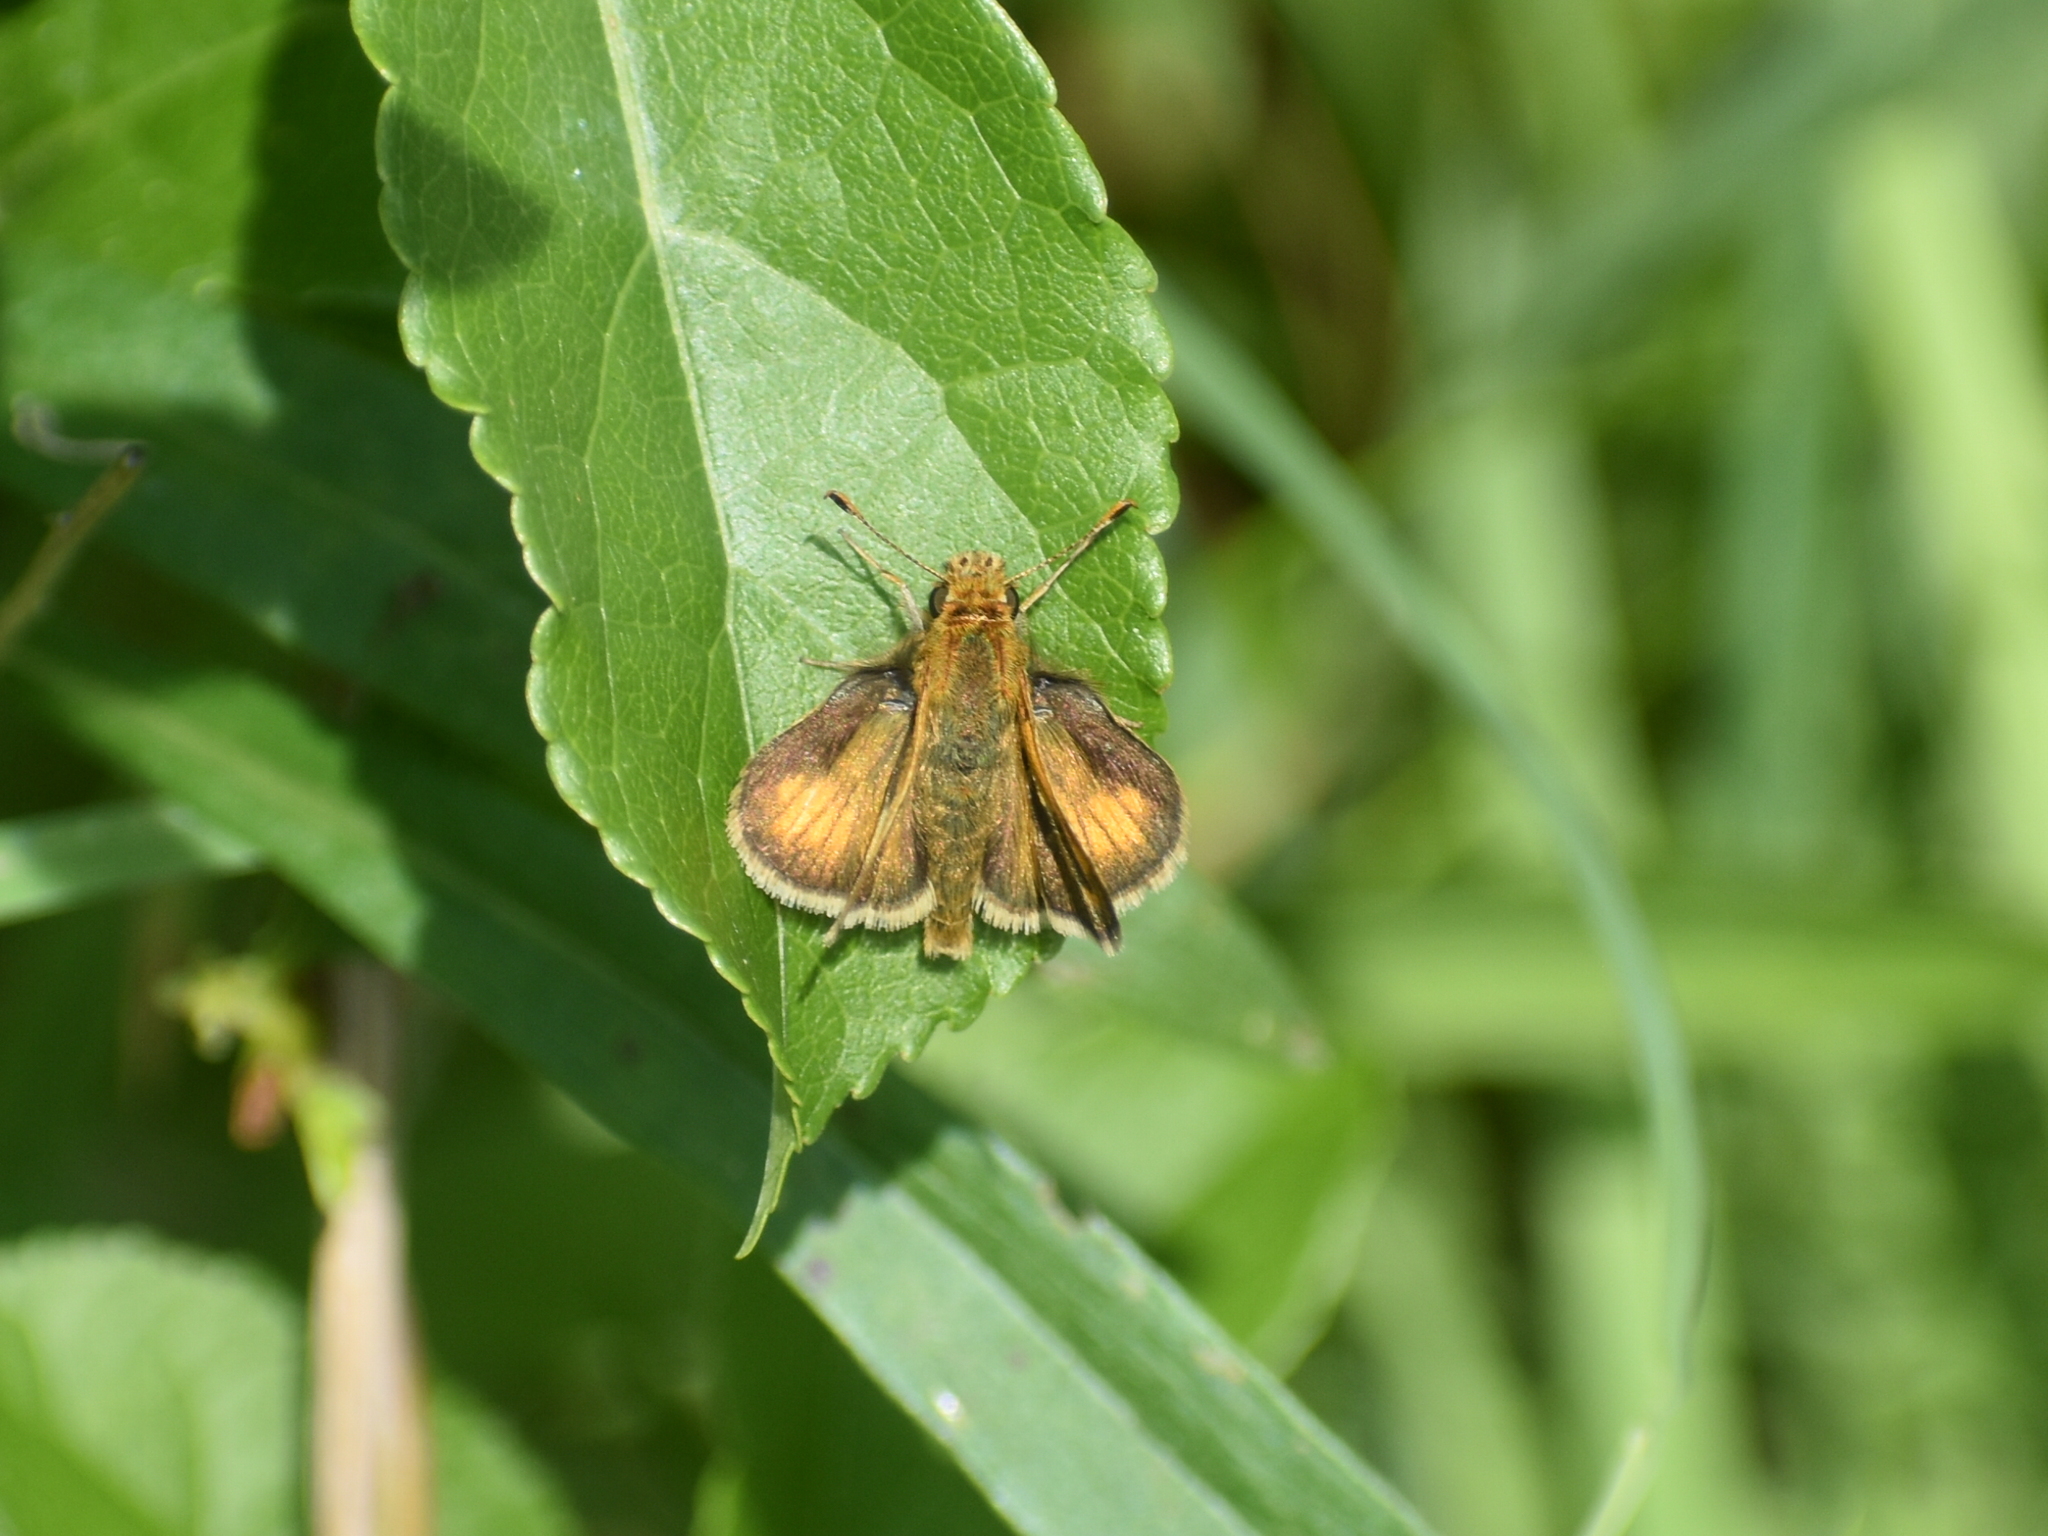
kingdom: Animalia
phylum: Arthropoda
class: Insecta
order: Lepidoptera
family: Hesperiidae
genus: Polites
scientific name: Polites coras
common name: Peck's skipper
